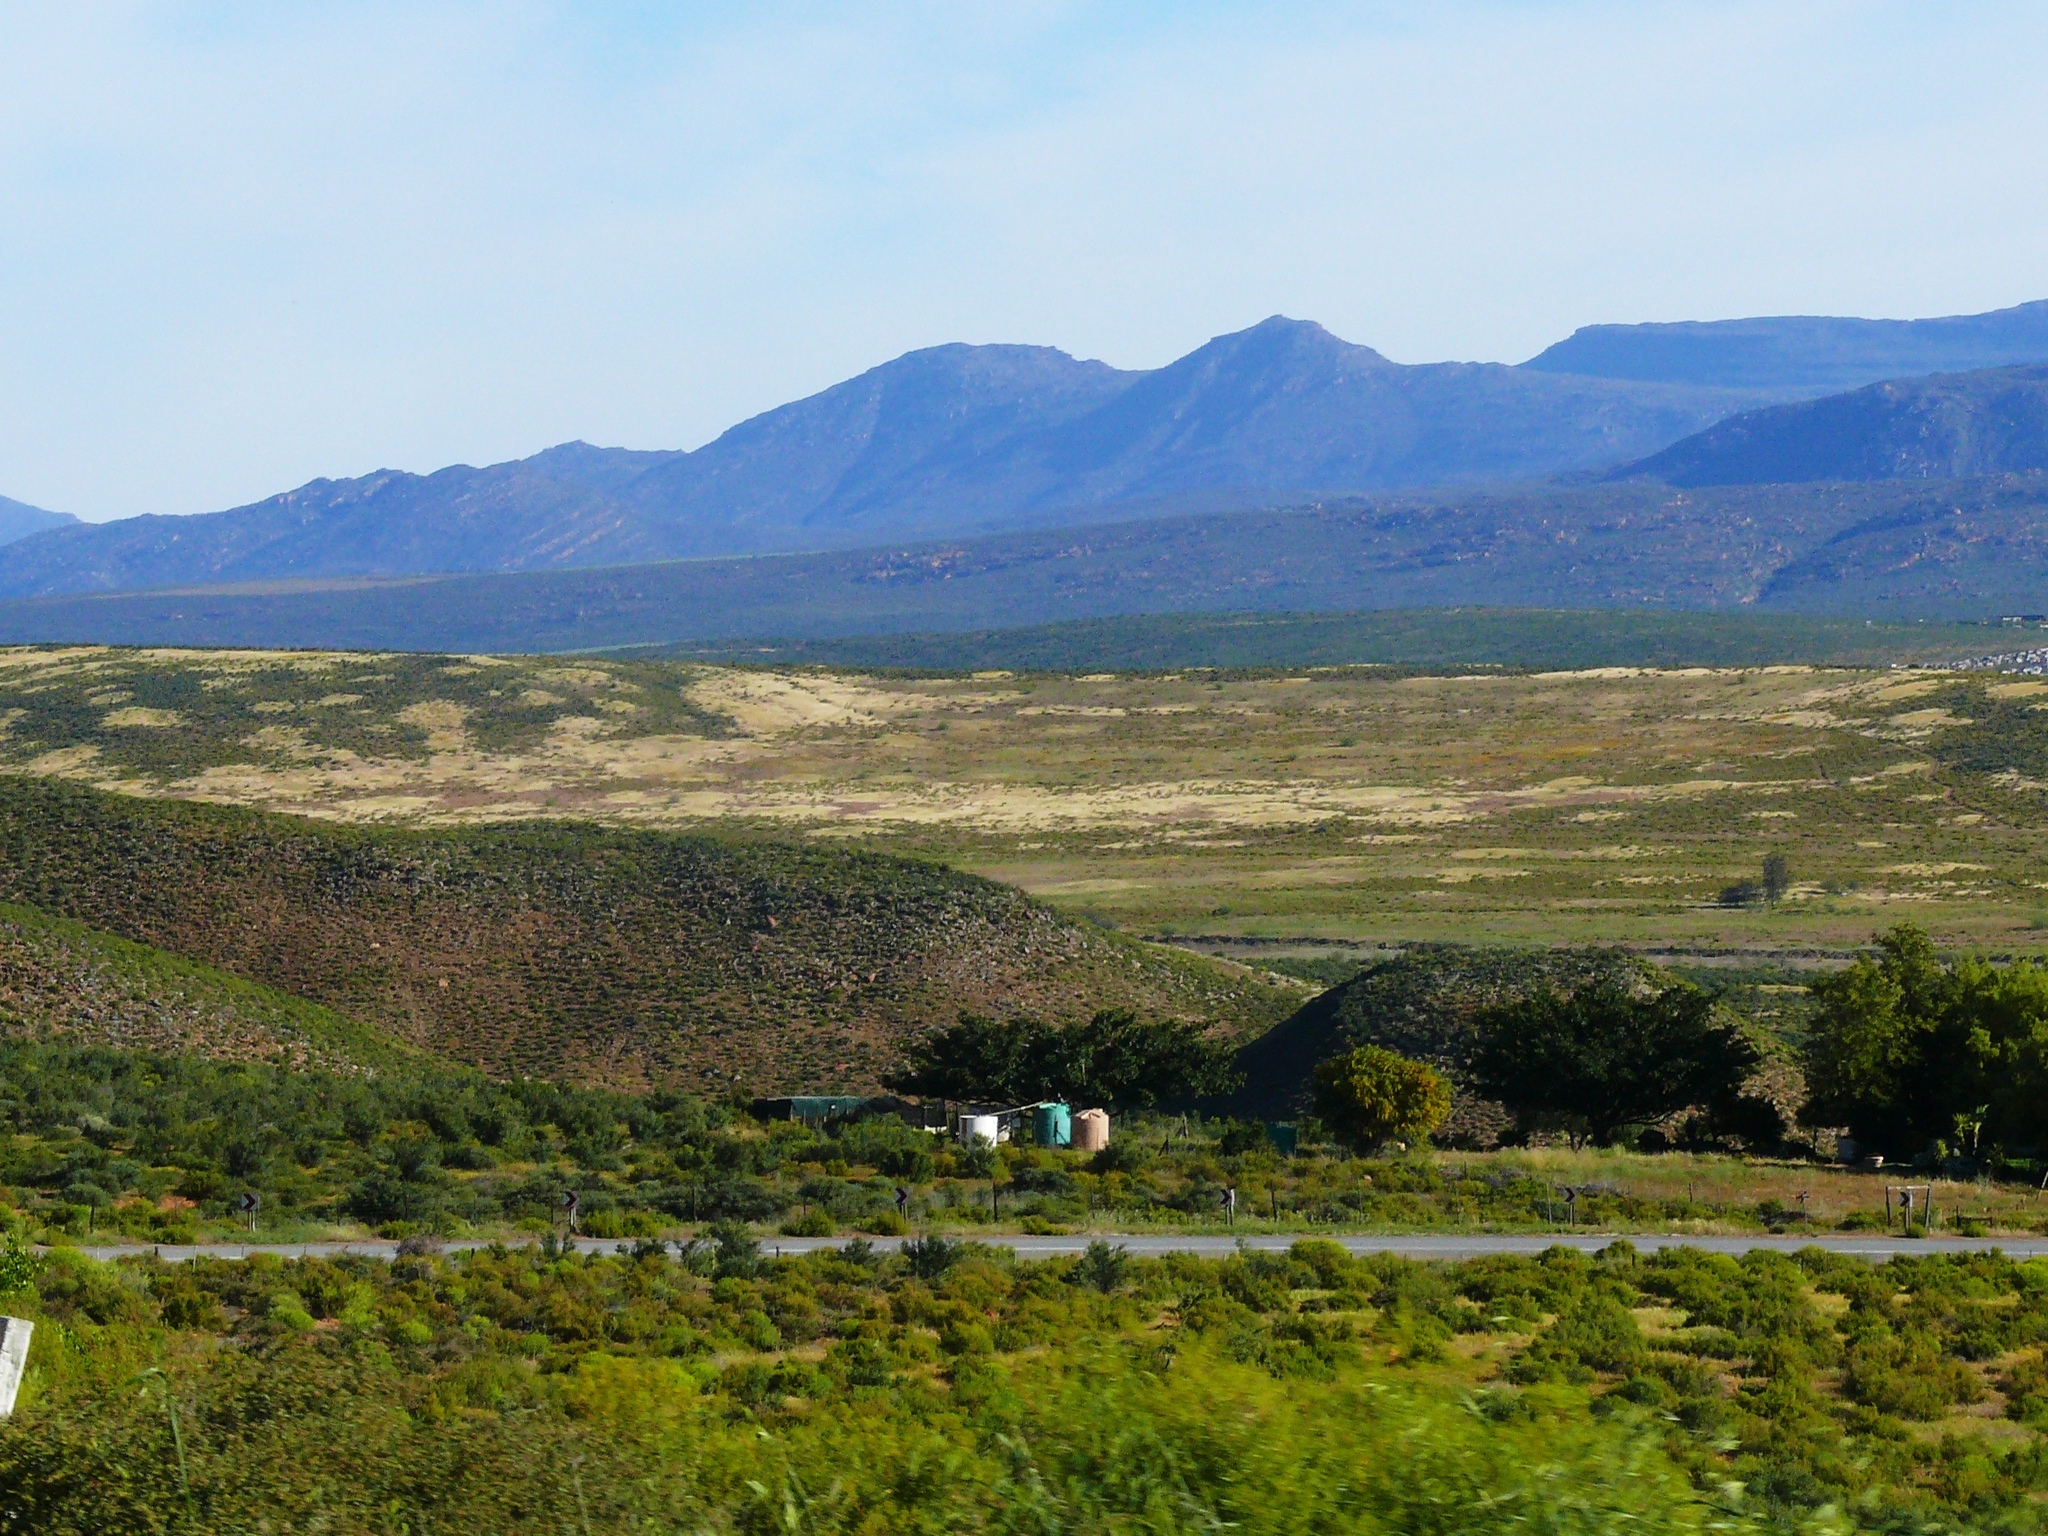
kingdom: Animalia
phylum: Arthropoda
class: Insecta
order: Blattodea
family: Hodotermitidae
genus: Microhodotermes
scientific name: Microhodotermes viator
